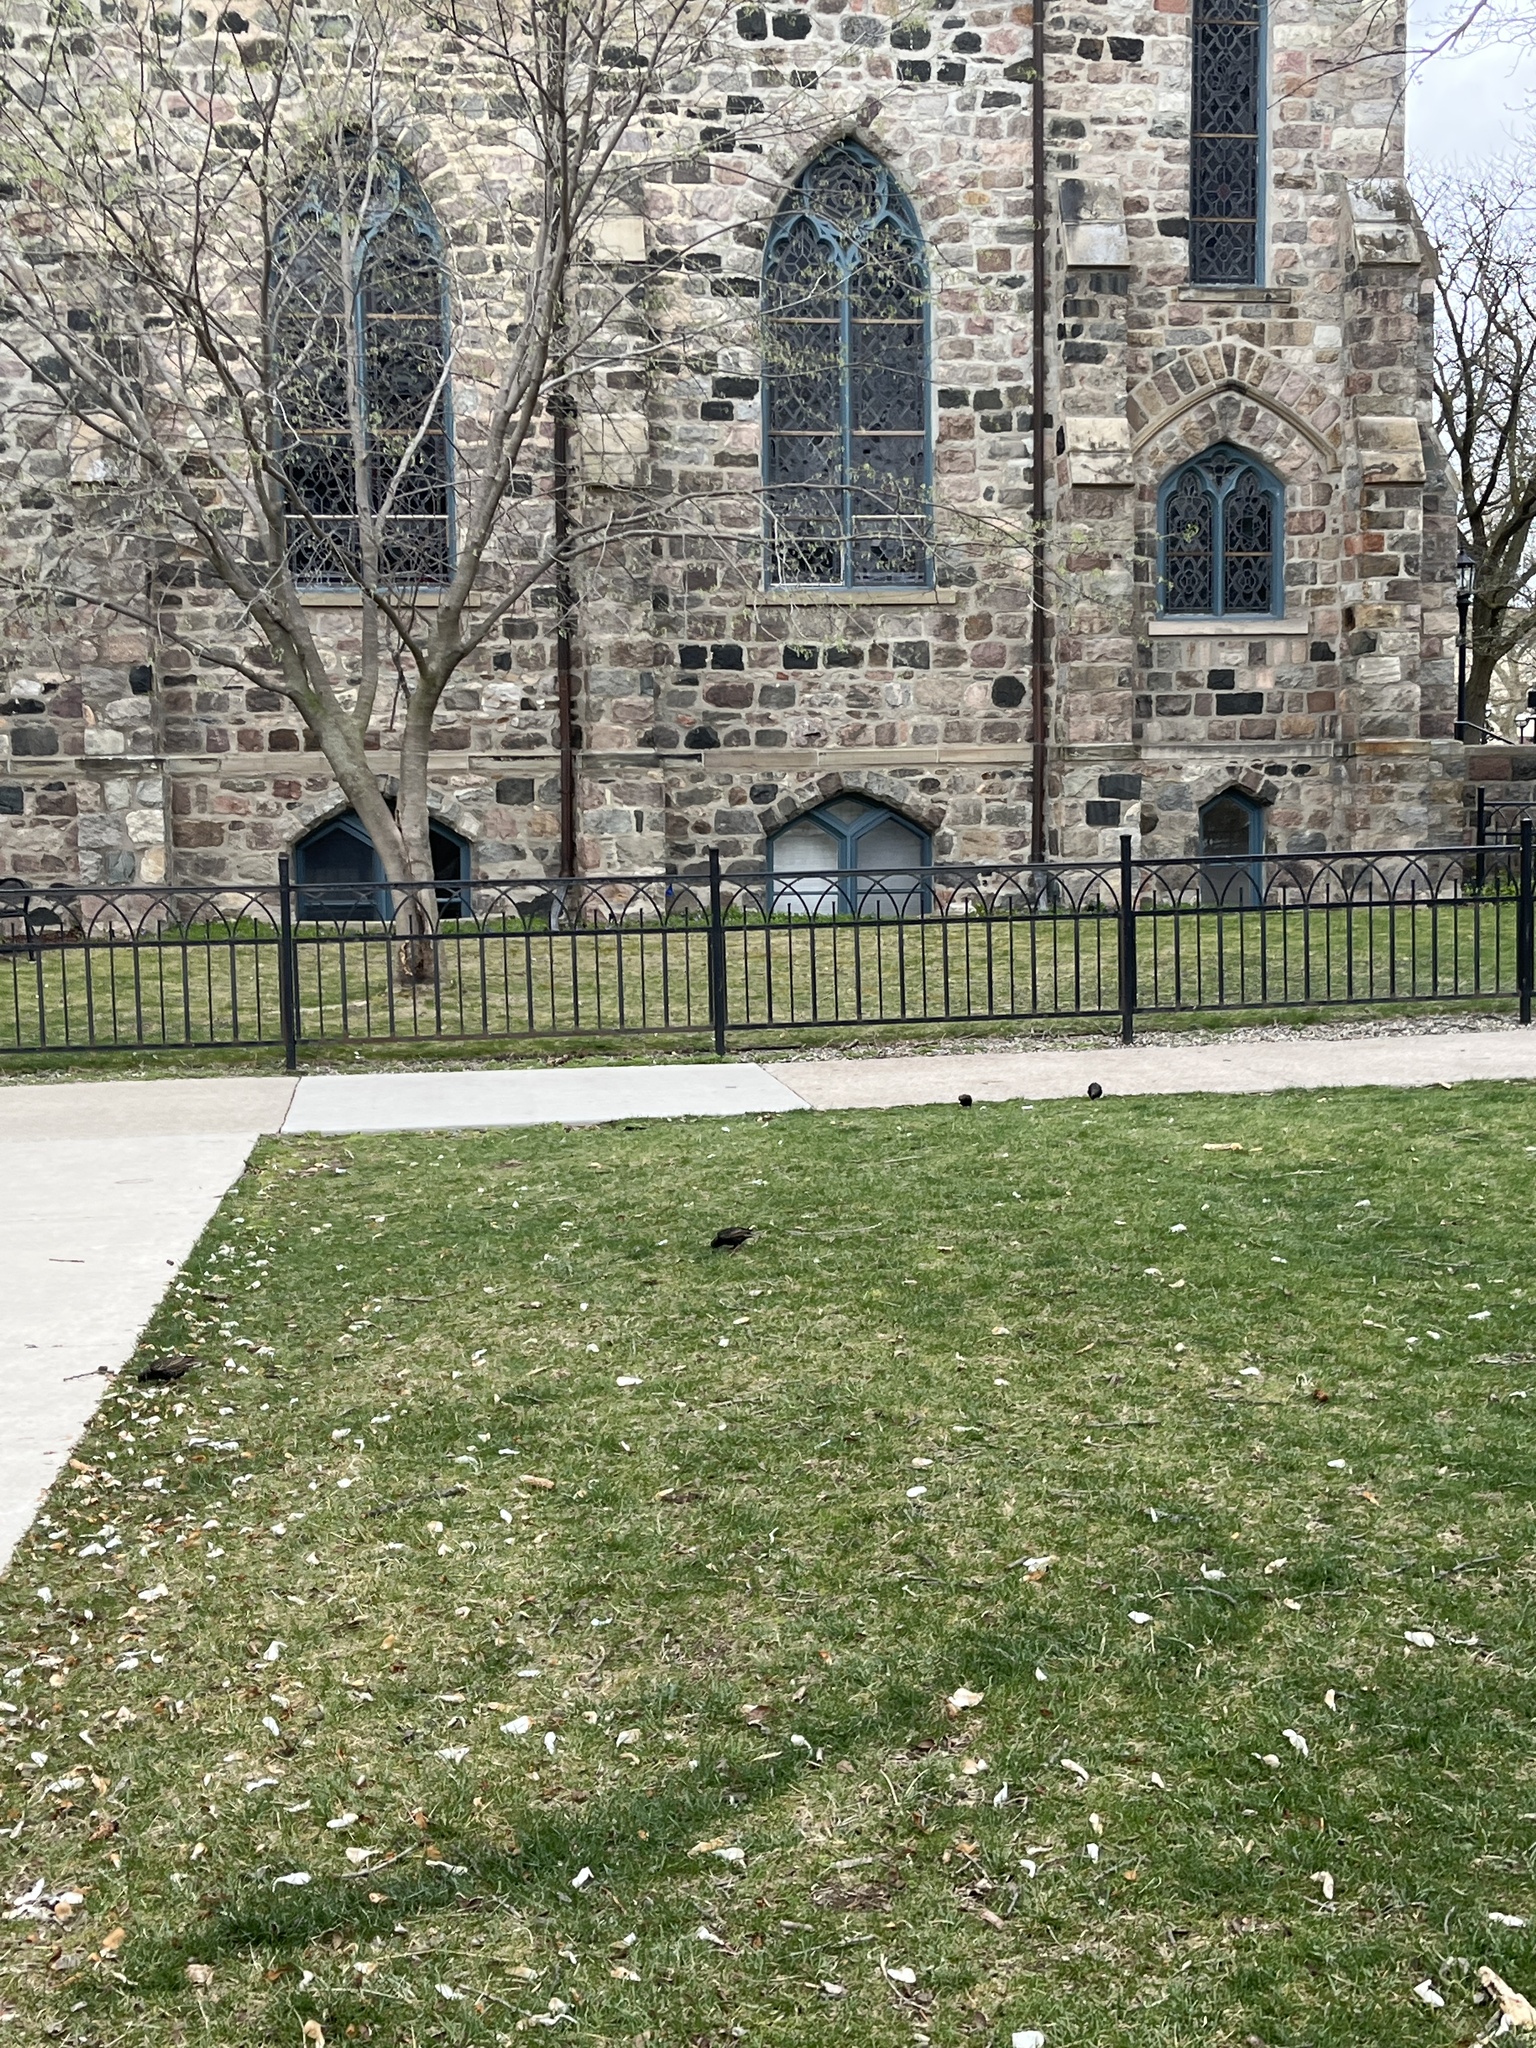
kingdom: Animalia
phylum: Chordata
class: Aves
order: Passeriformes
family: Sturnidae
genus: Sturnus
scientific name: Sturnus vulgaris
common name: Common starling
